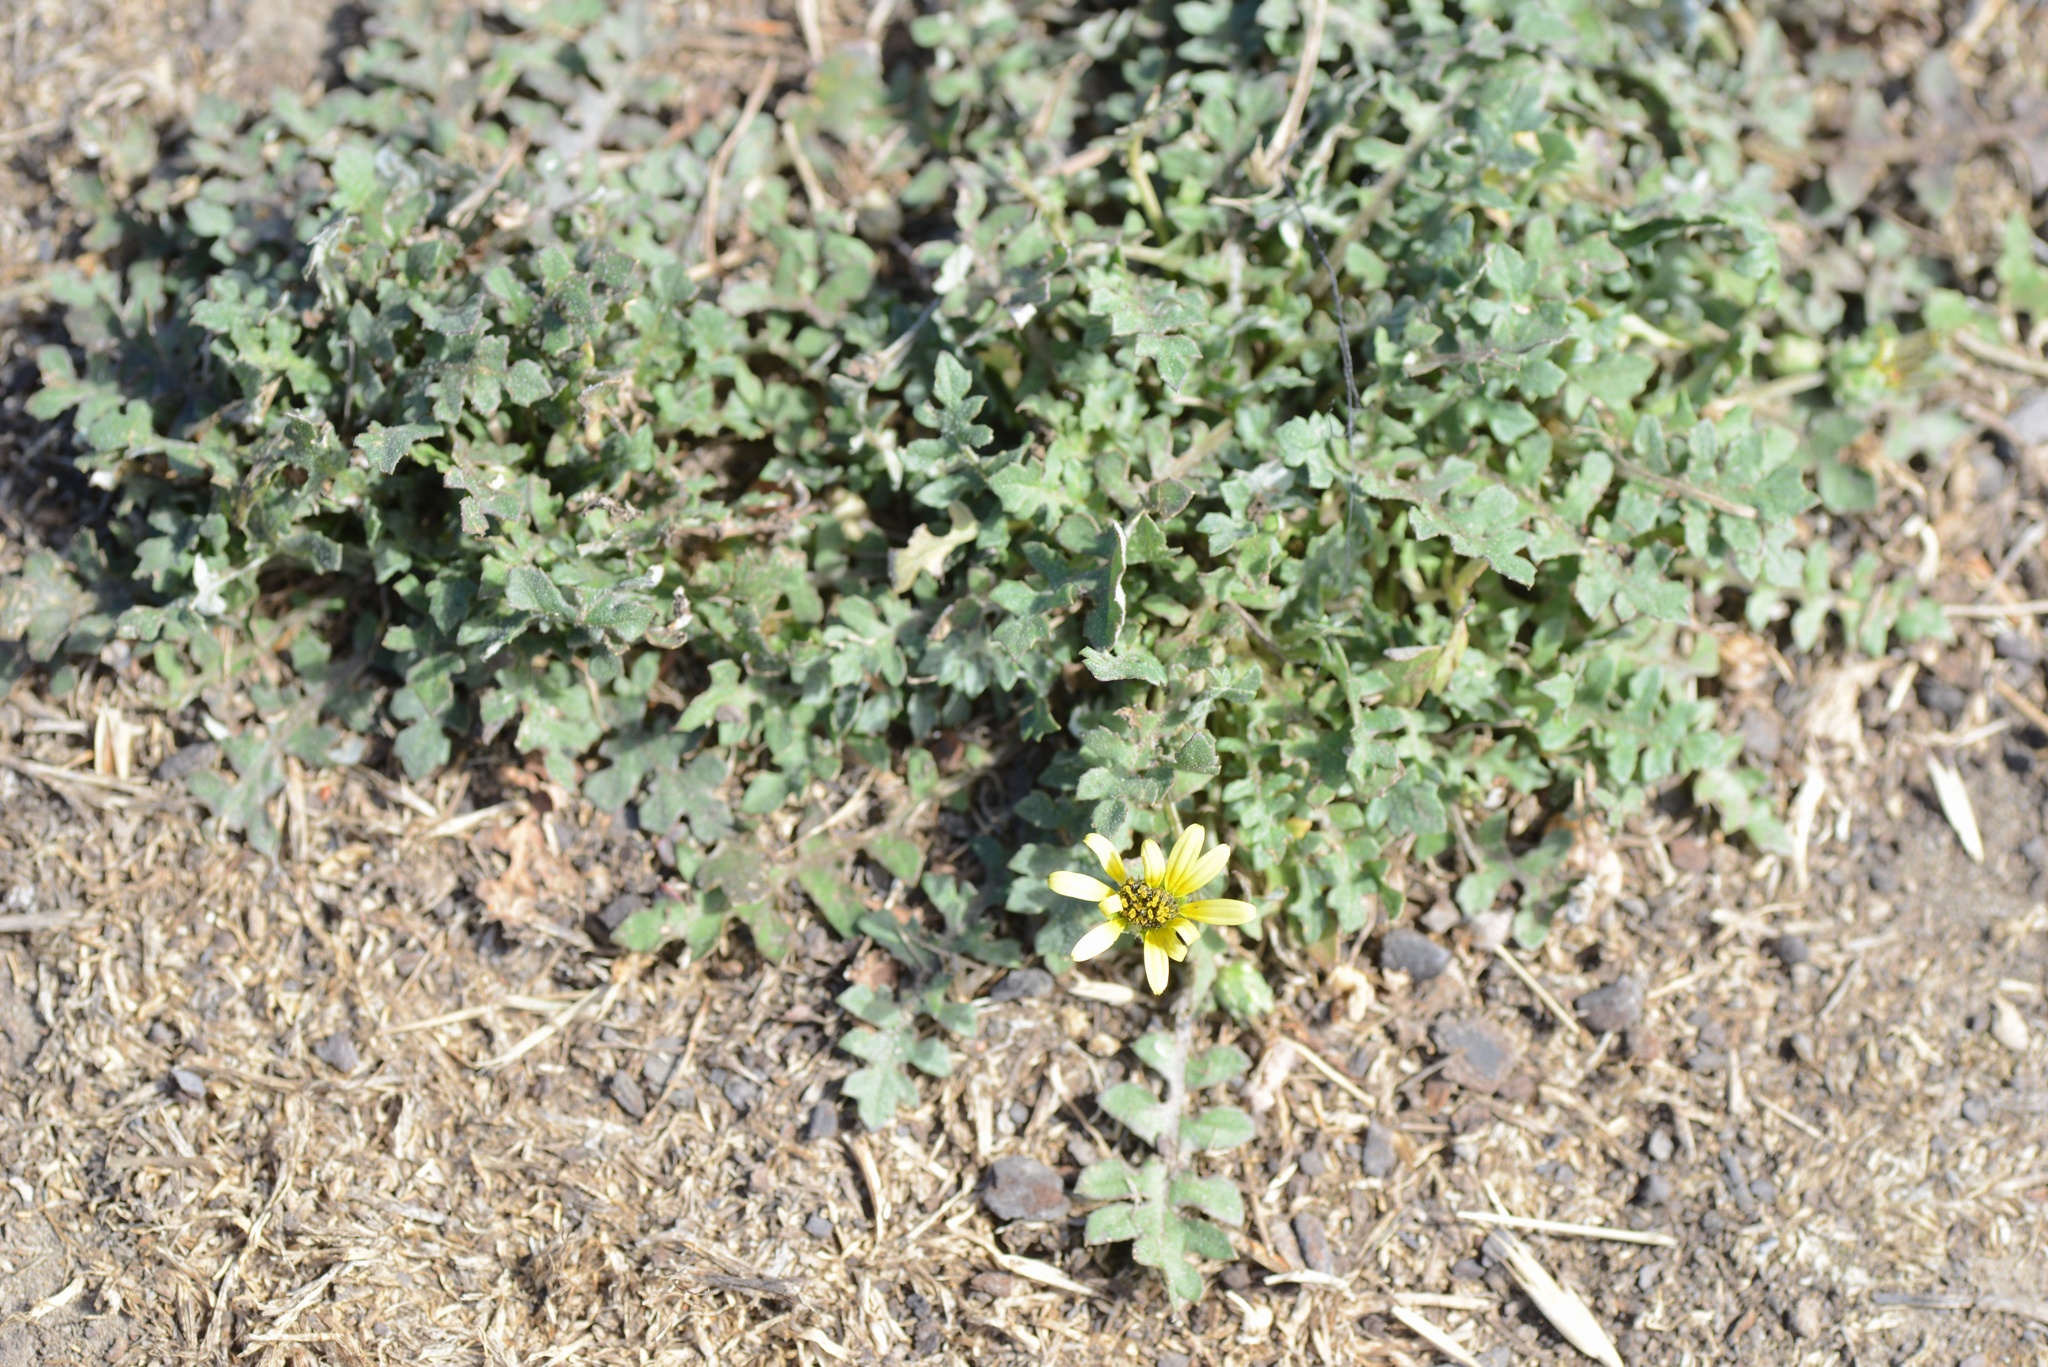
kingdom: Plantae
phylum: Tracheophyta
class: Magnoliopsida
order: Asterales
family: Asteraceae
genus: Arctotheca
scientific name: Arctotheca calendula
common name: Capeweed
